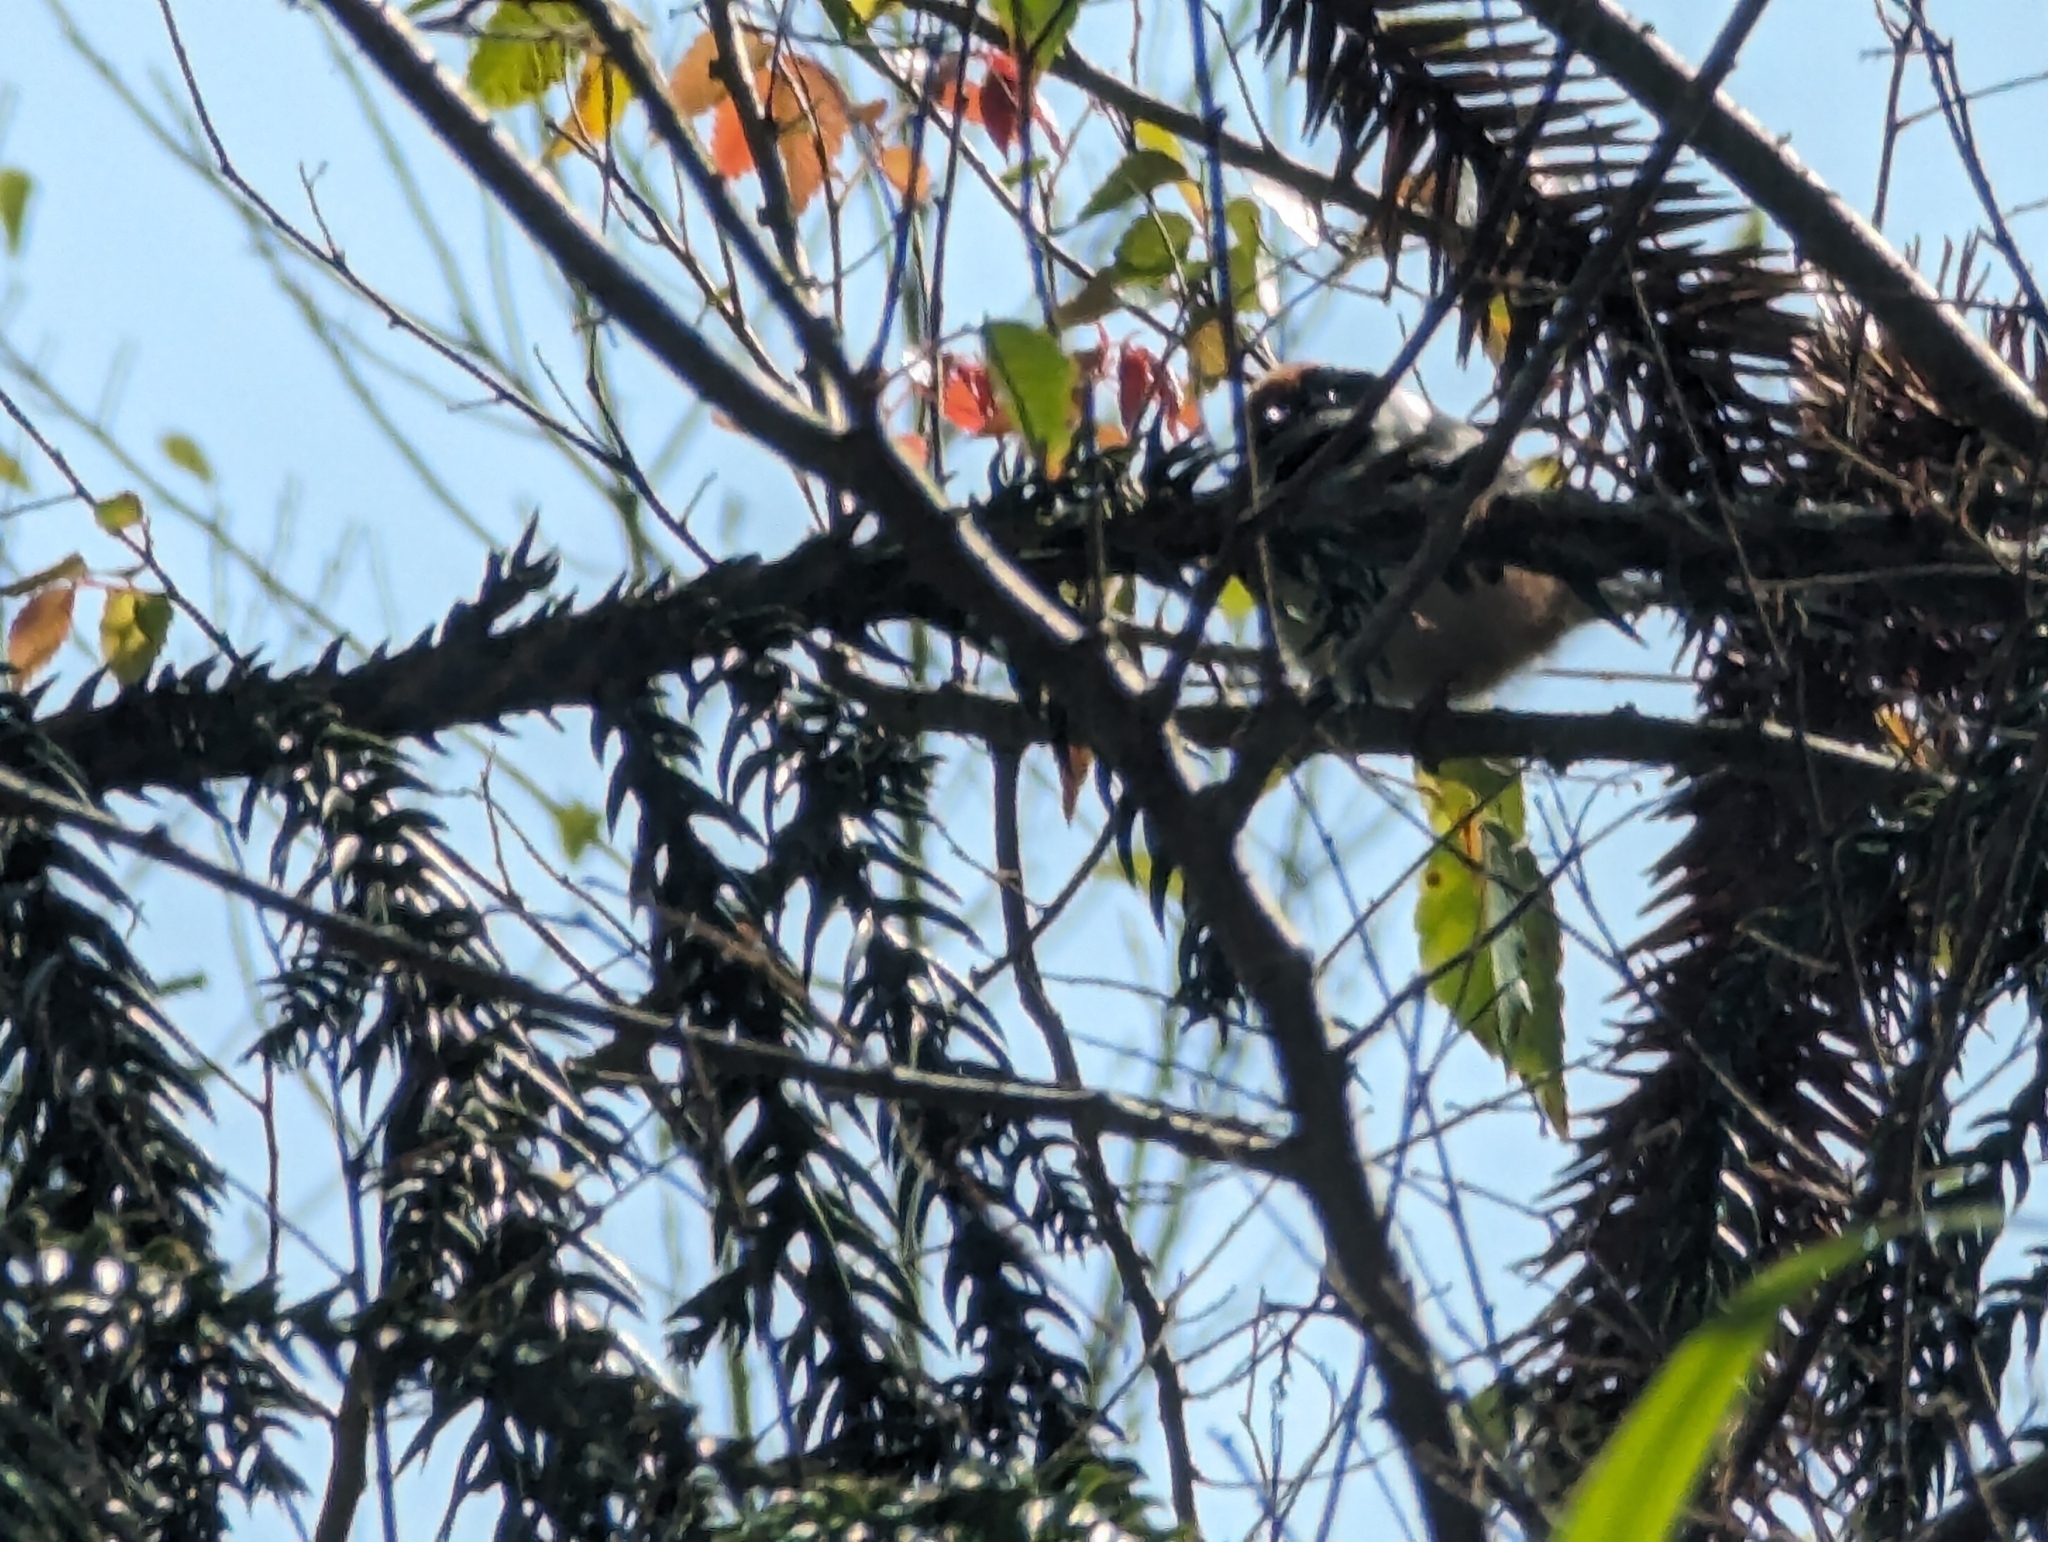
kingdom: Animalia
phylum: Chordata
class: Aves
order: Passeriformes
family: Aegithalidae
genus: Aegithalos
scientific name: Aegithalos concinnus
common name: Black-throated bushtit
